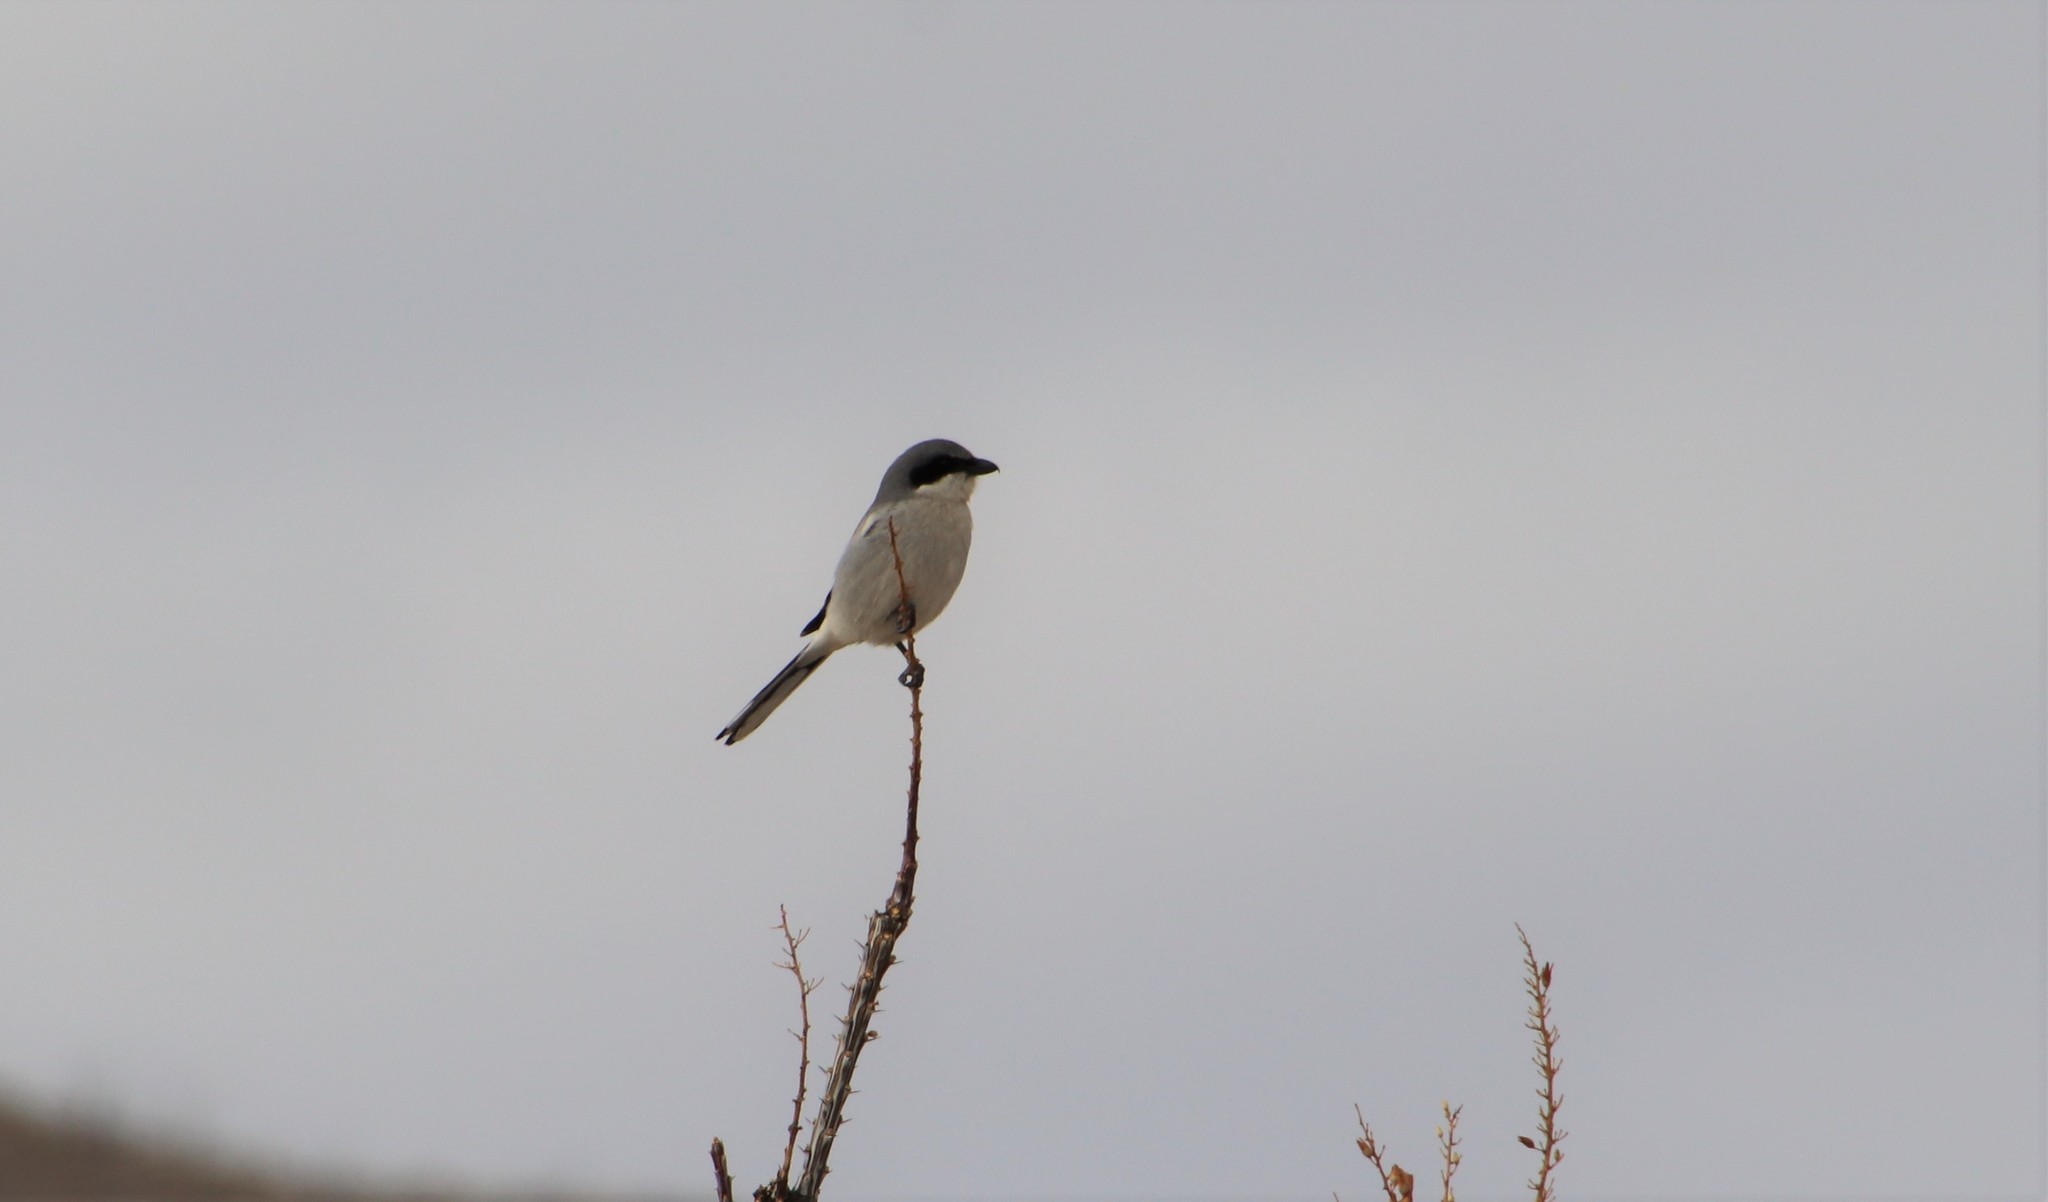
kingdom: Animalia
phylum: Chordata
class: Aves
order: Passeriformes
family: Laniidae
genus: Lanius
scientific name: Lanius ludovicianus
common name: Loggerhead shrike
